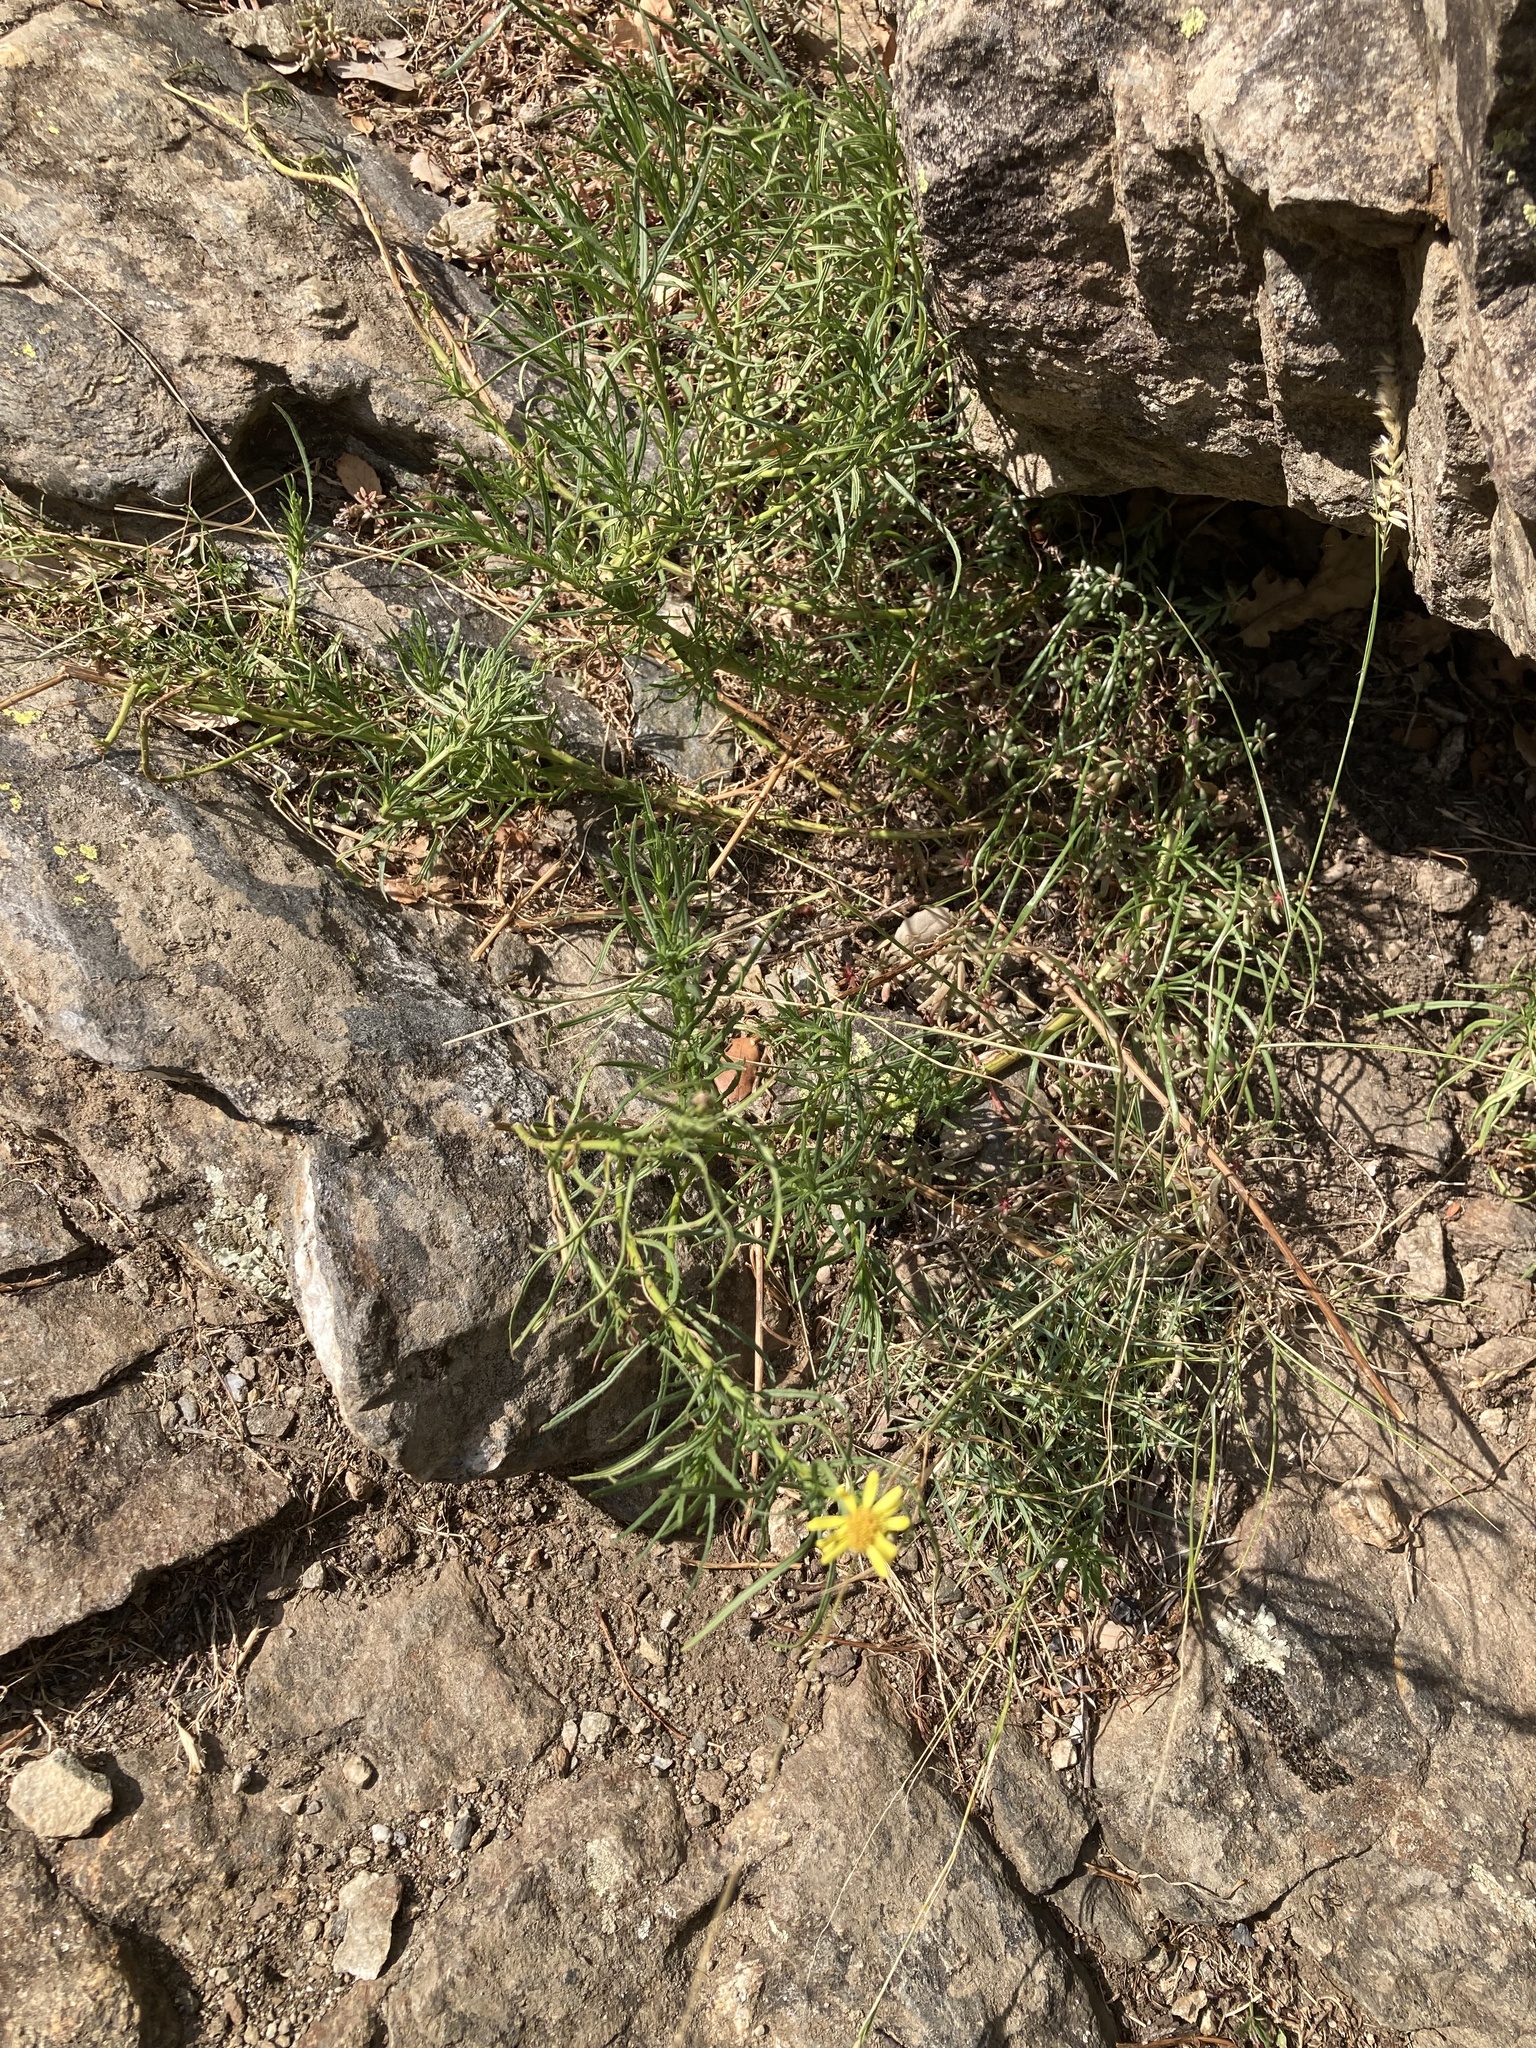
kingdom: Plantae
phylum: Tracheophyta
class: Magnoliopsida
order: Asterales
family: Asteraceae
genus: Senecio
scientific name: Senecio inaequidens
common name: Narrow-leaved ragwort
